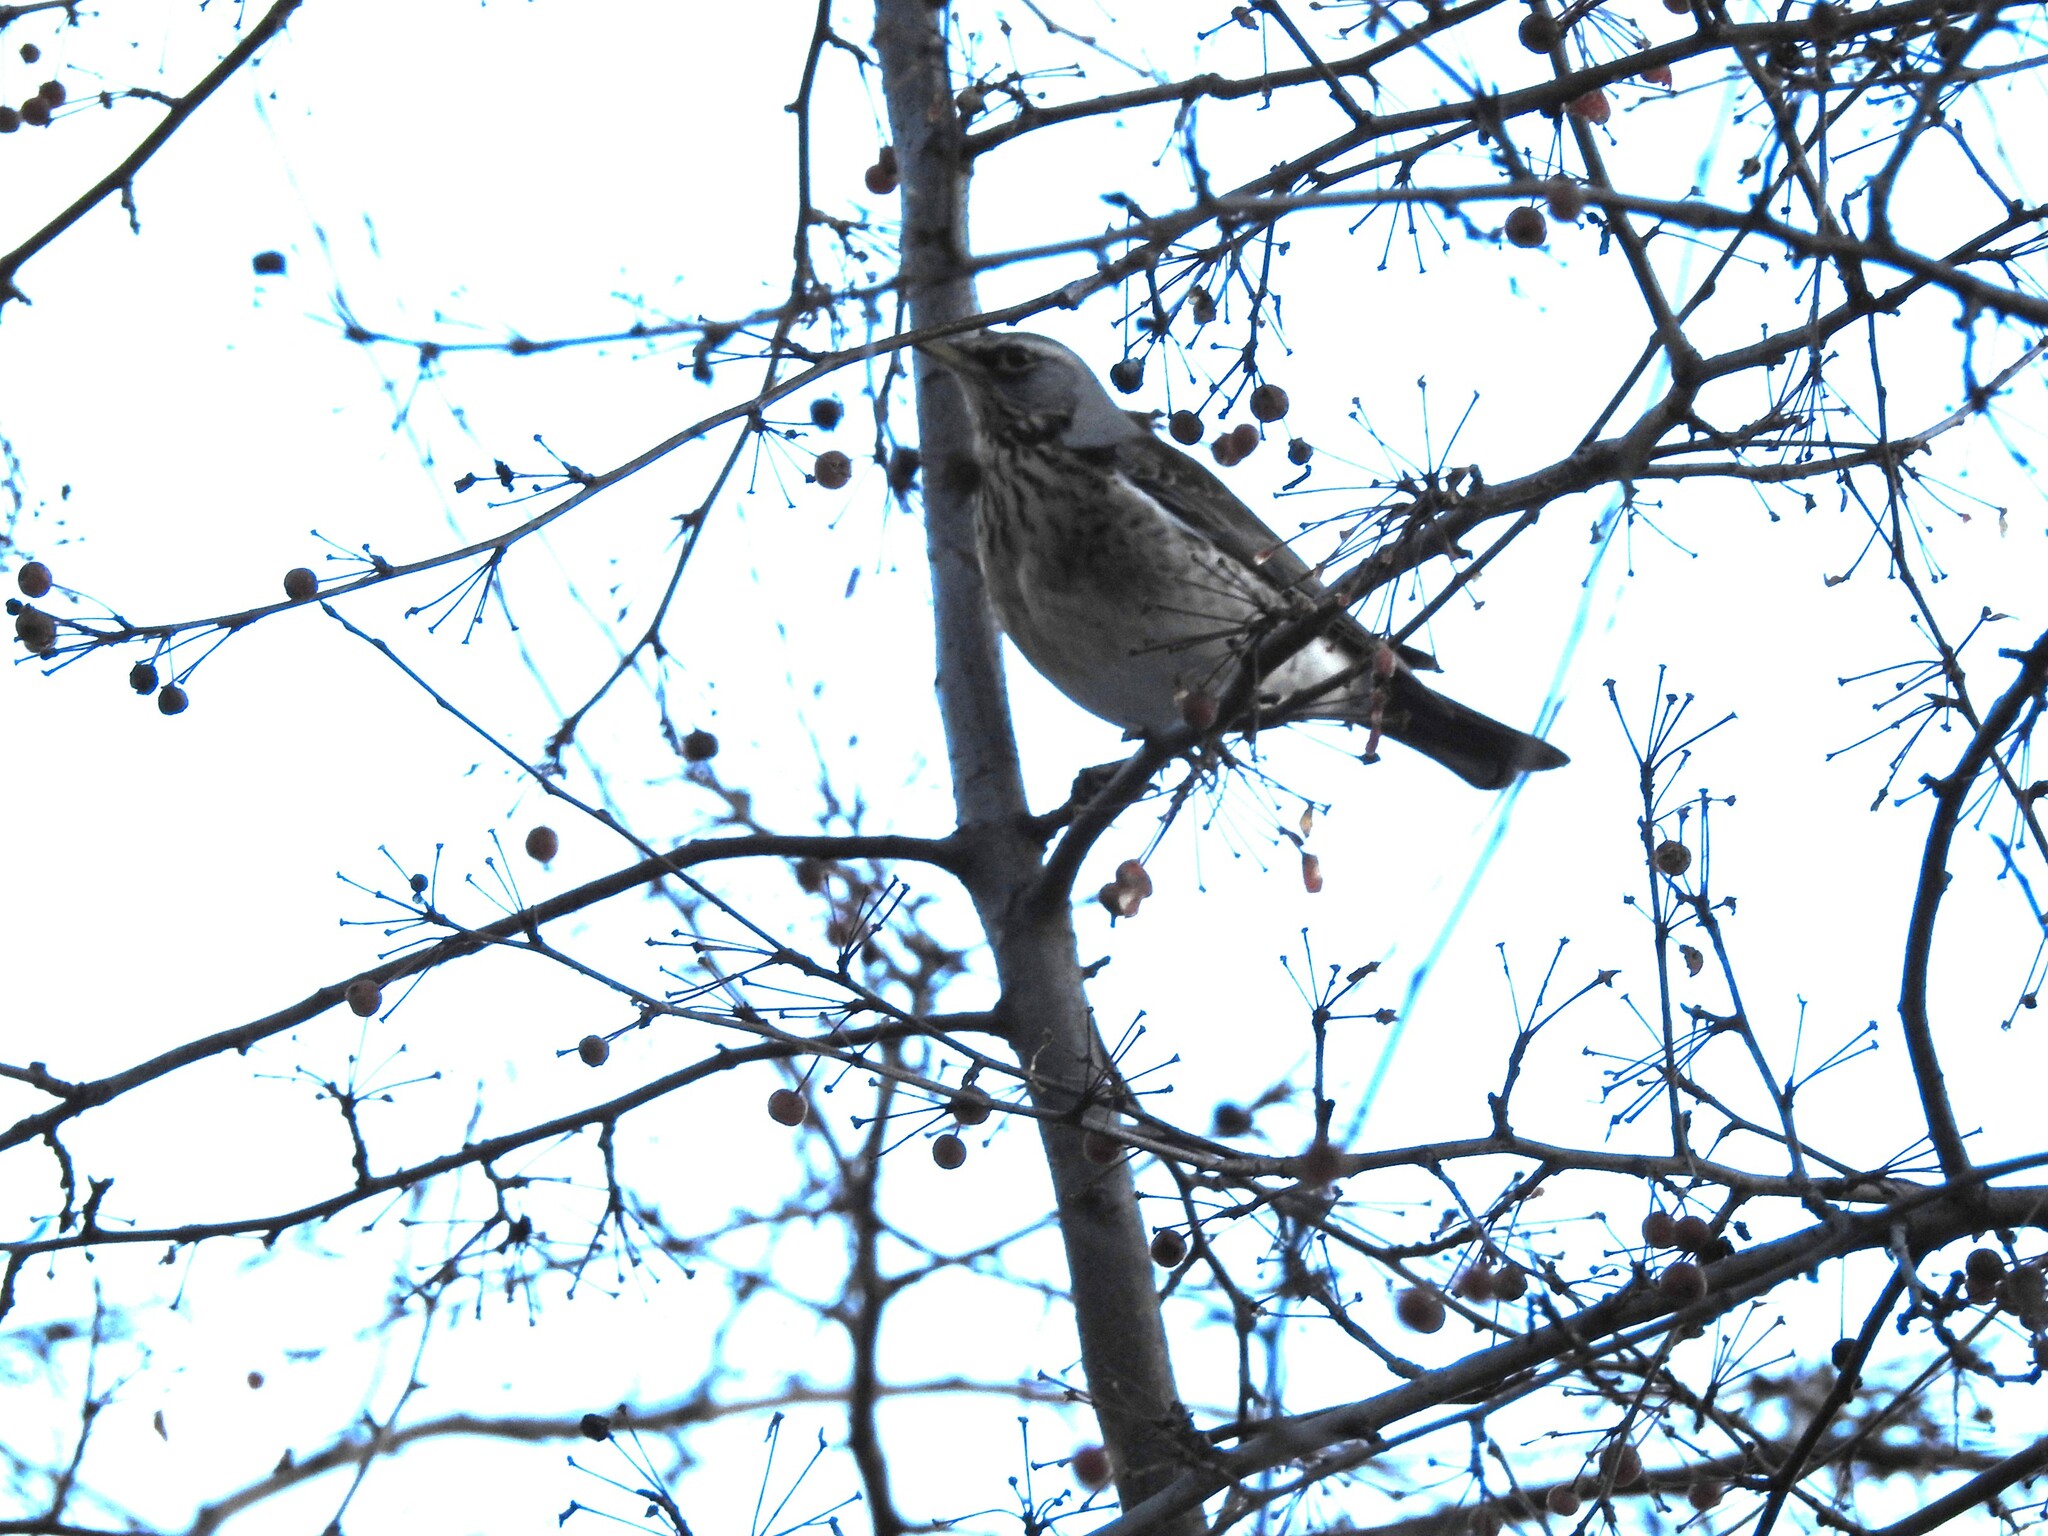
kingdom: Animalia
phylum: Chordata
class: Aves
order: Passeriformes
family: Turdidae
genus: Turdus
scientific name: Turdus pilaris
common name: Fieldfare
